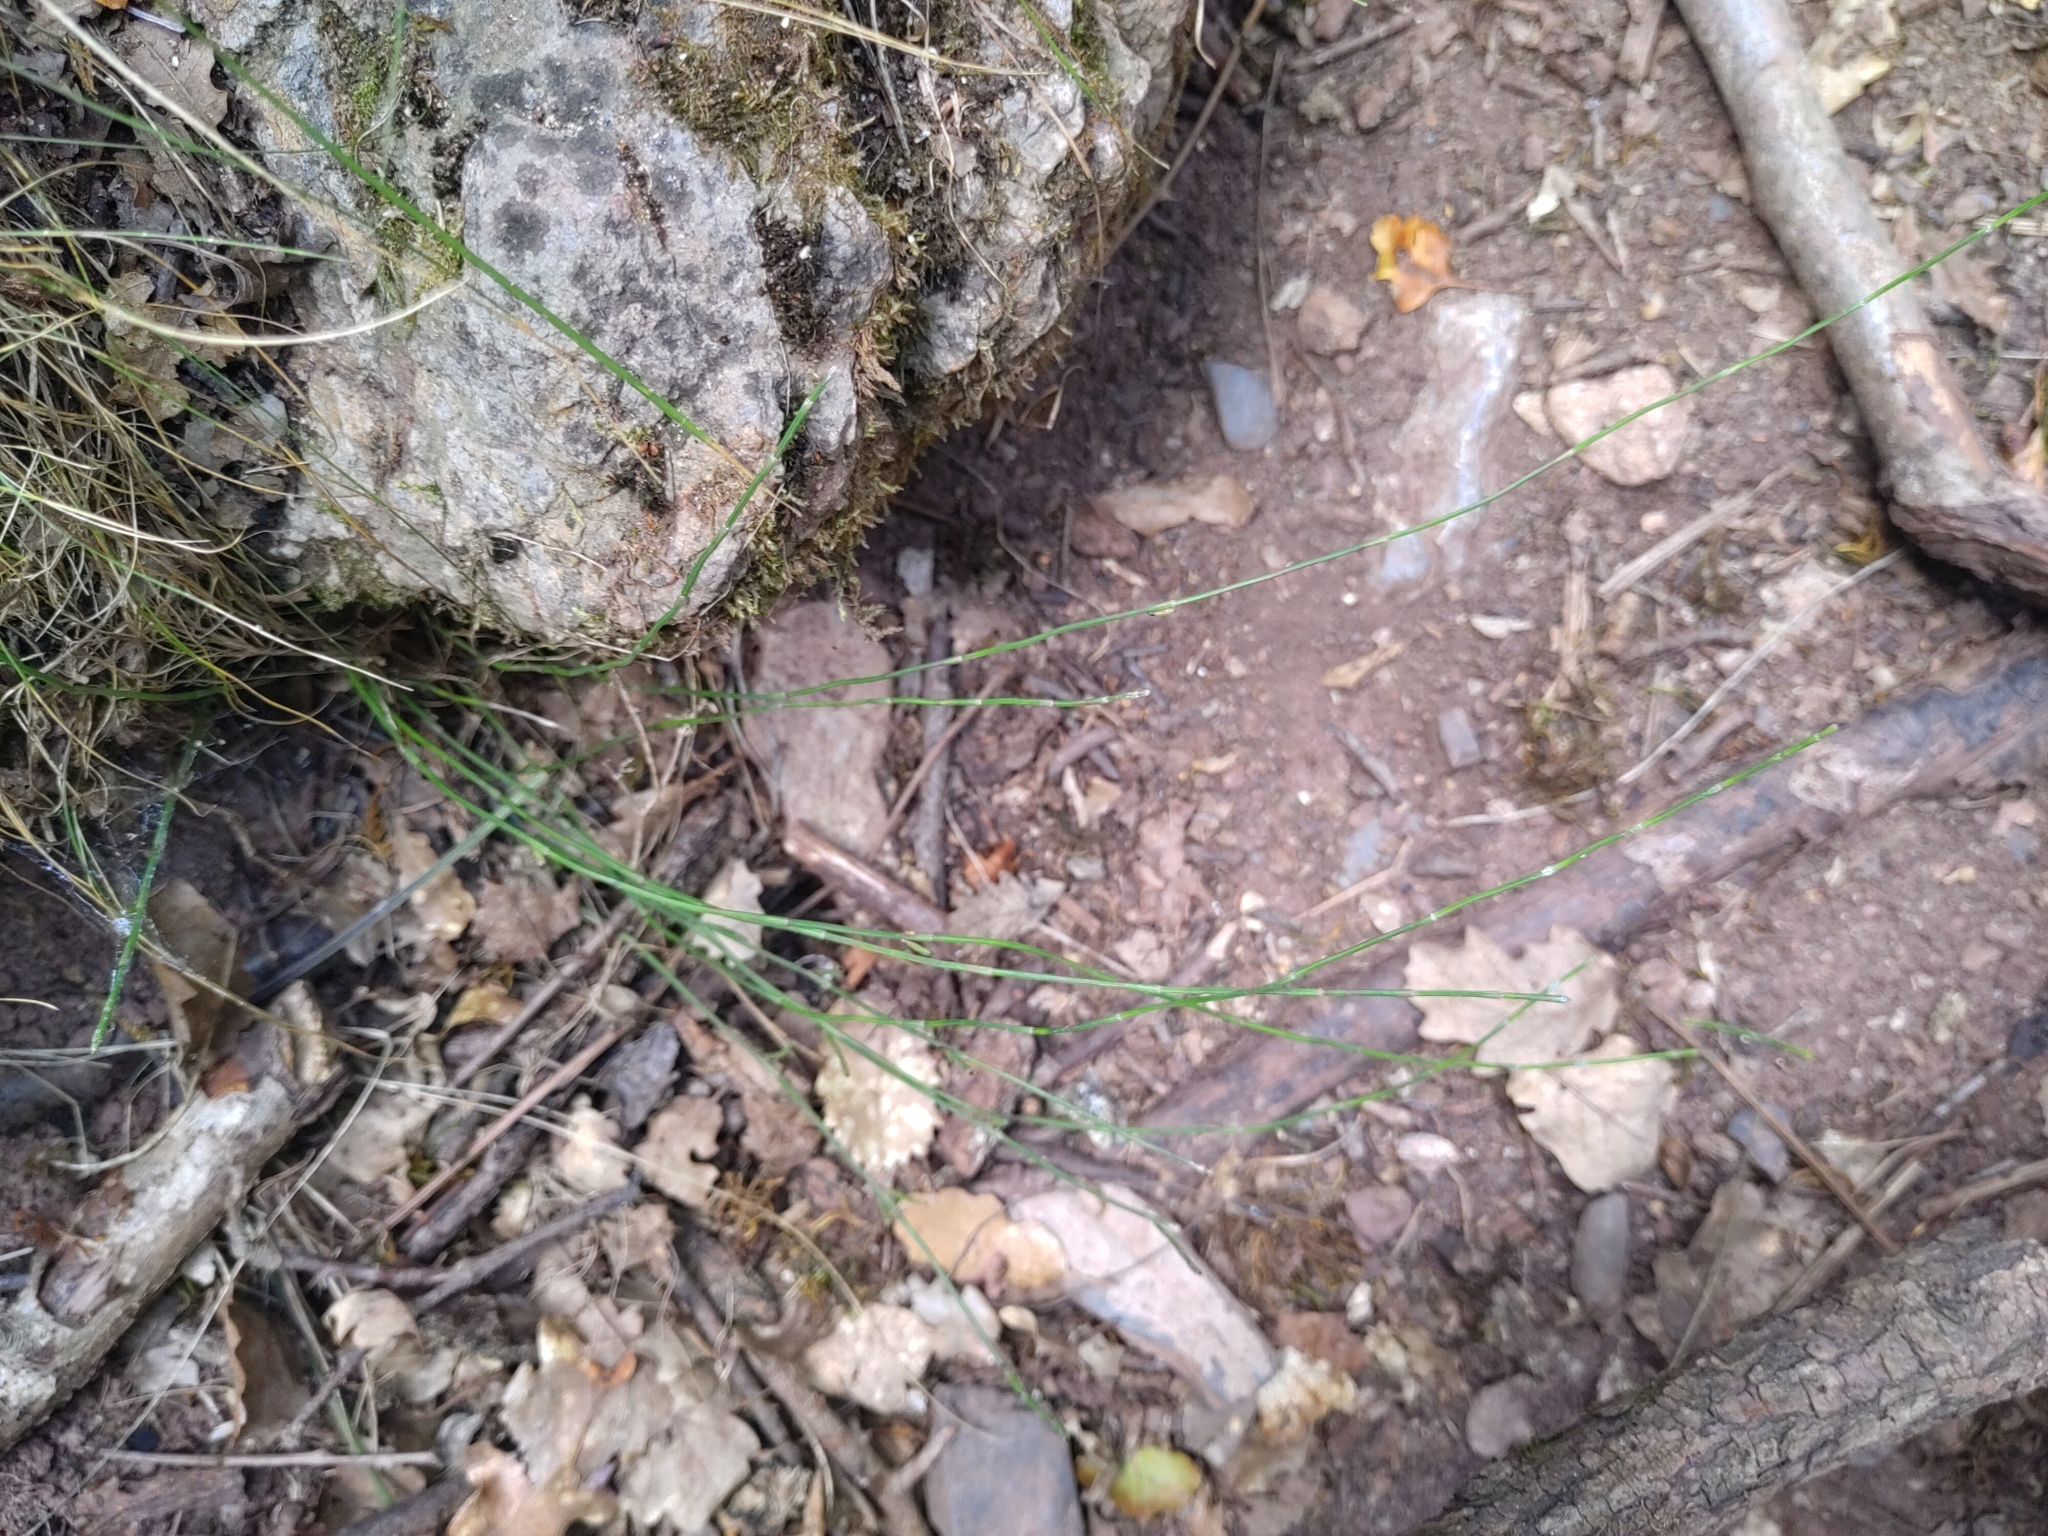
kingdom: Plantae
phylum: Tracheophyta
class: Polypodiopsida
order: Equisetales
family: Equisetaceae
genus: Equisetum
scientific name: Equisetum ramosissimum
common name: Branched horsetail
